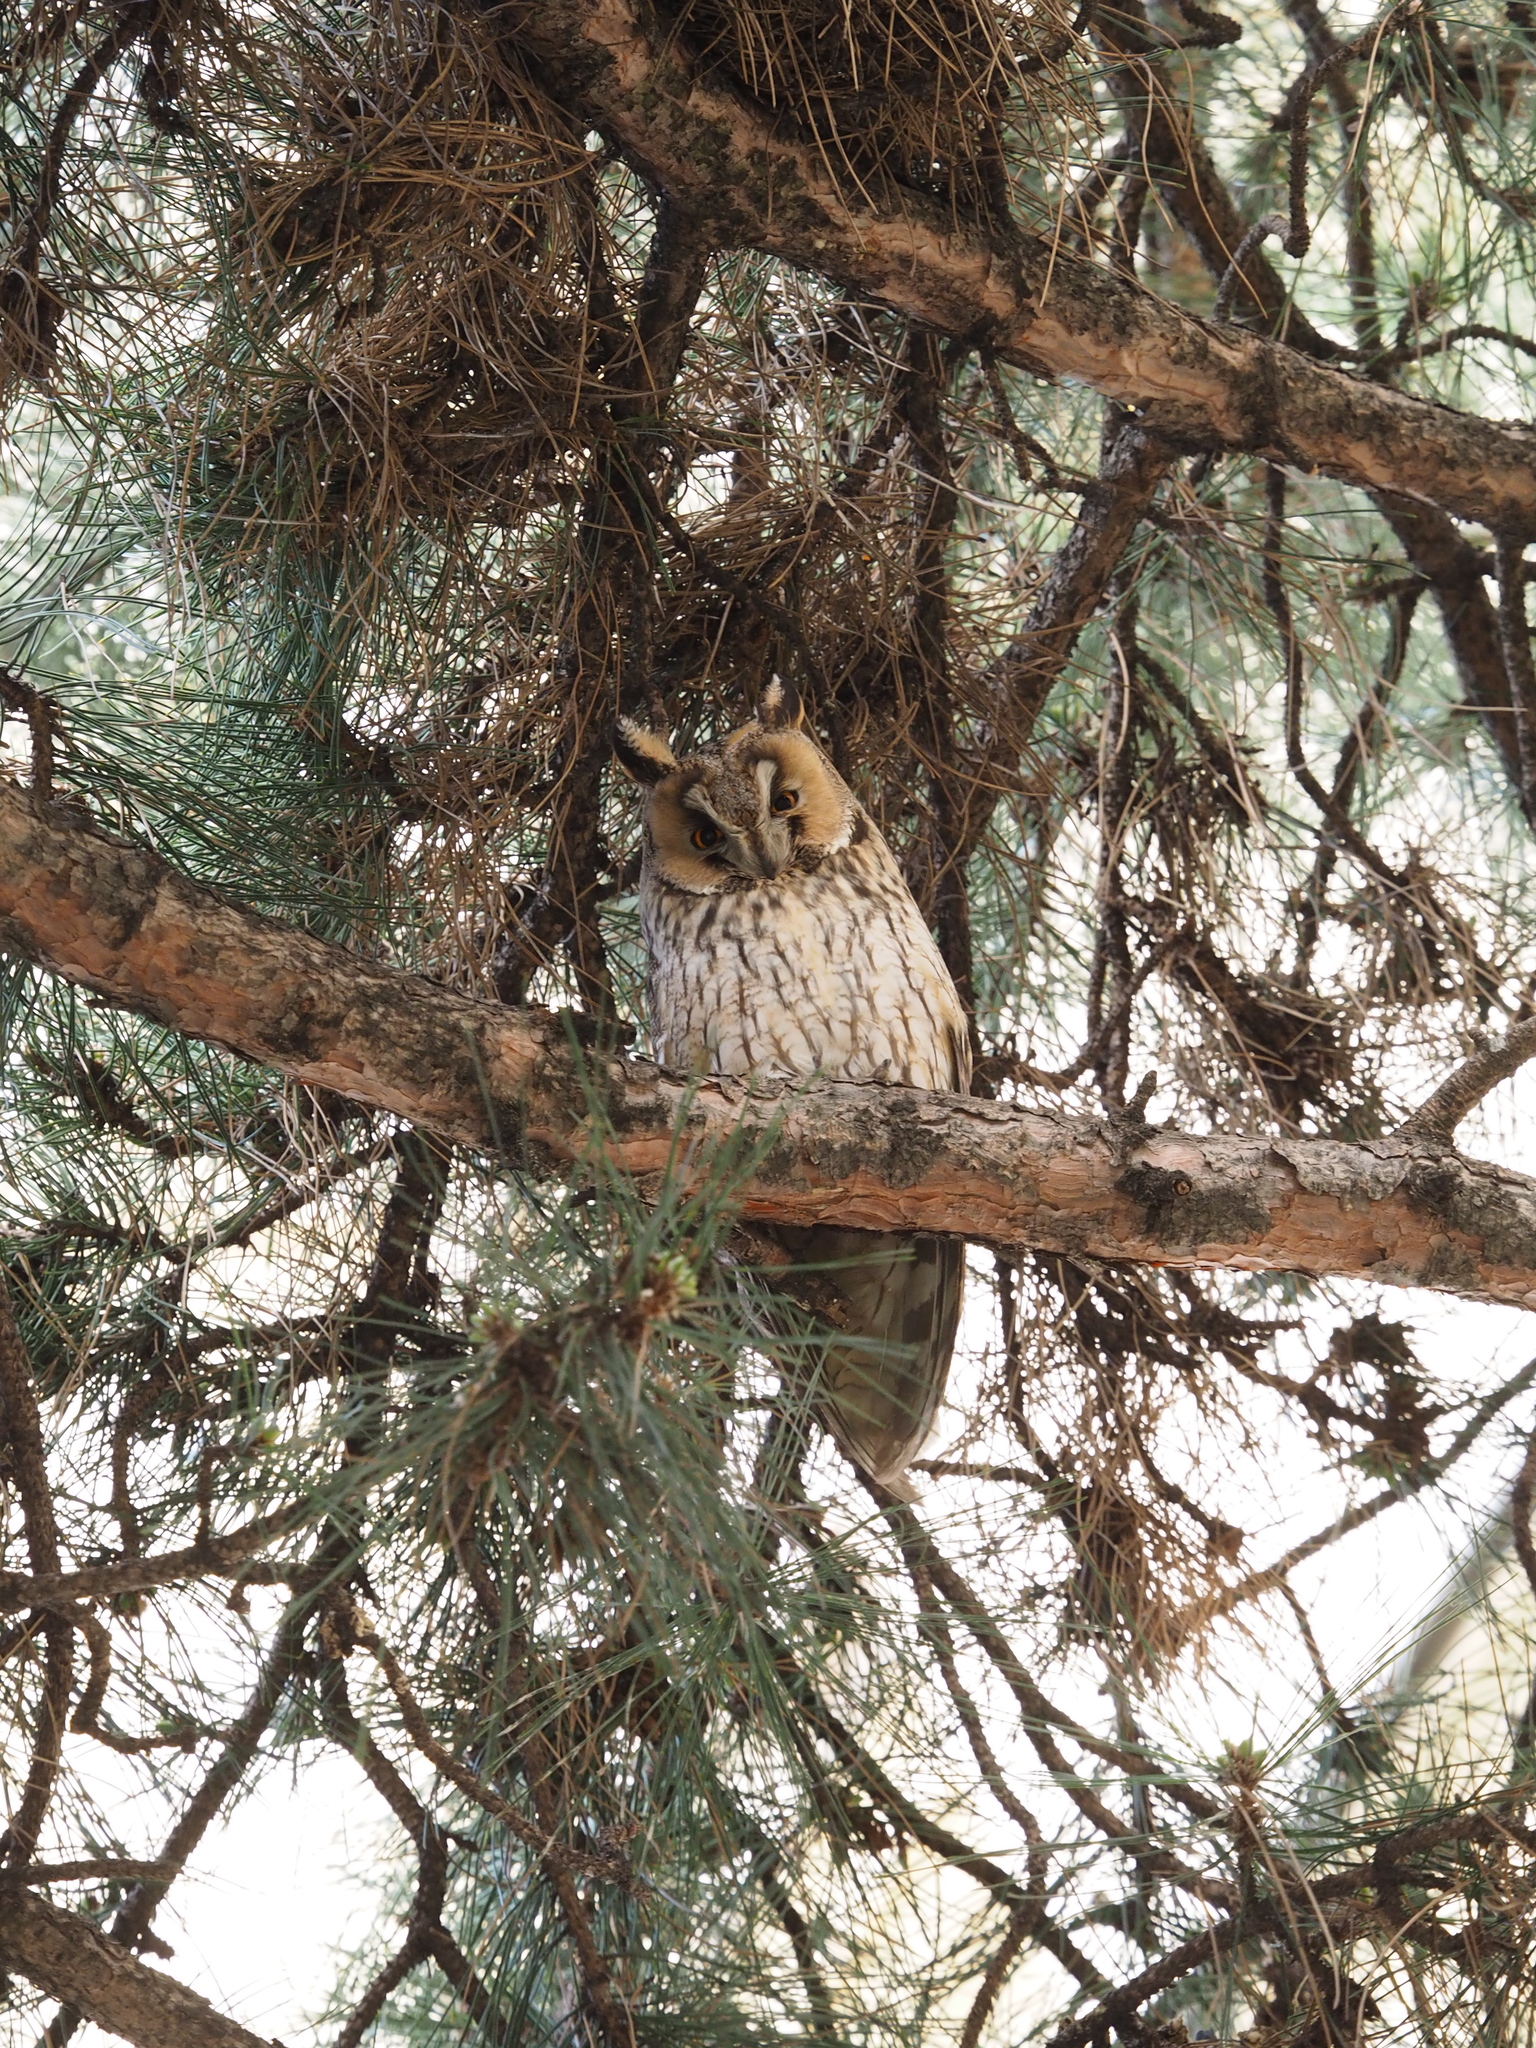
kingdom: Animalia
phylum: Chordata
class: Aves
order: Strigiformes
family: Strigidae
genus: Asio
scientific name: Asio otus
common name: Long-eared owl
